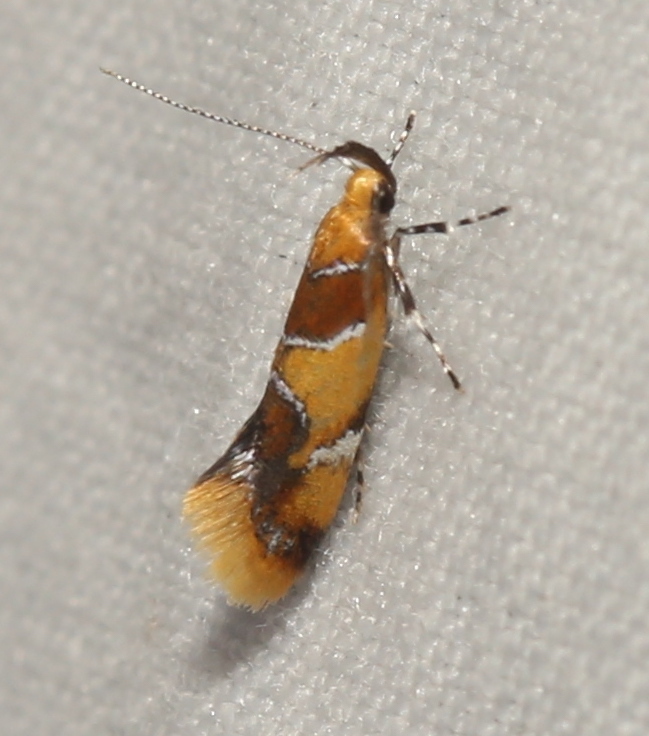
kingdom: Animalia
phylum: Arthropoda
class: Insecta
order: Lepidoptera
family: Oecophoridae
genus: Callima
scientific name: Callima argenticinctella
